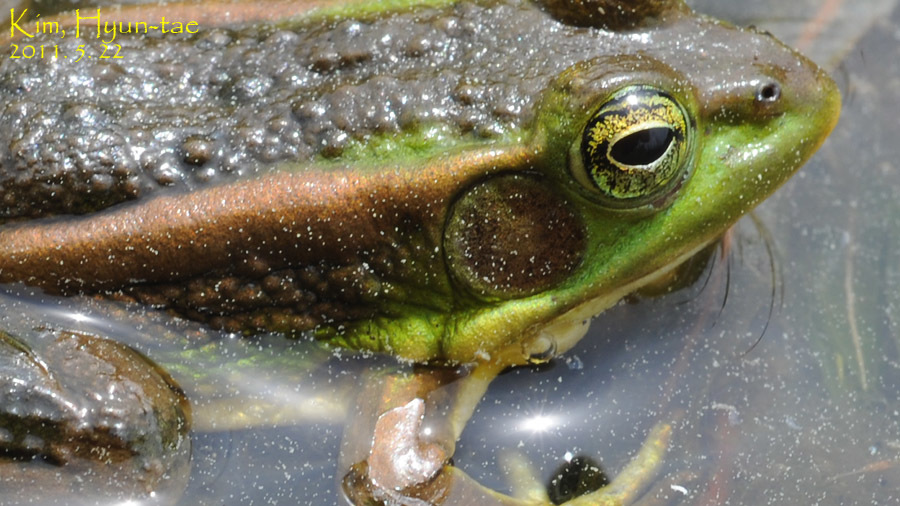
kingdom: Animalia
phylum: Chordata
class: Amphibia
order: Anura
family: Ranidae
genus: Pelophylax
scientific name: Pelophylax chosenicus
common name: Gold-spotted pond frog
